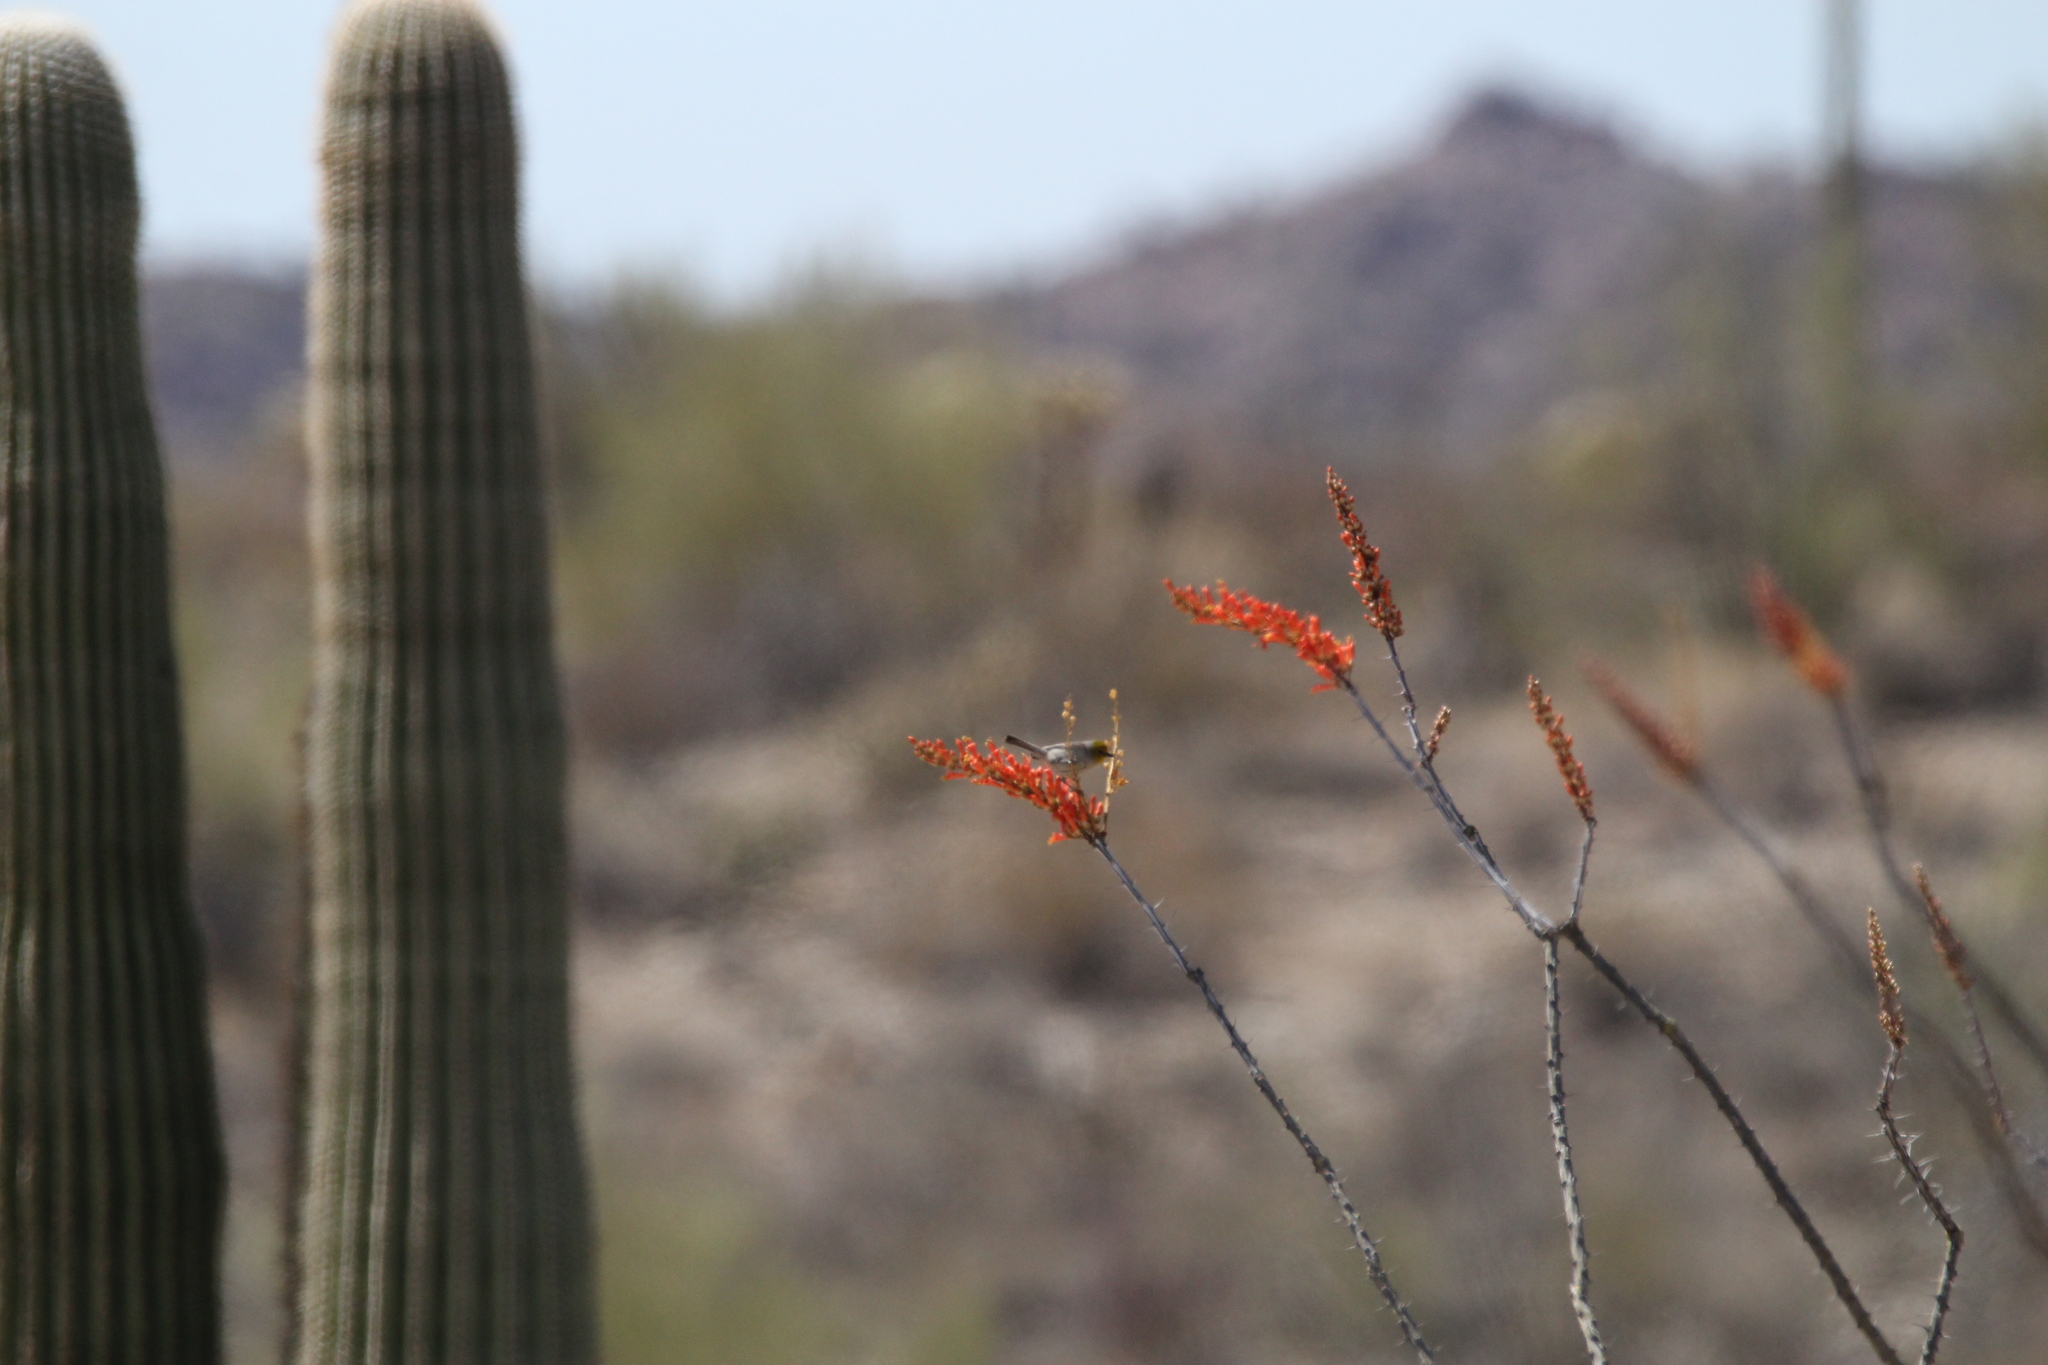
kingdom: Animalia
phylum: Chordata
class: Aves
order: Passeriformes
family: Remizidae
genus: Auriparus
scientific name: Auriparus flaviceps
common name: Verdin
